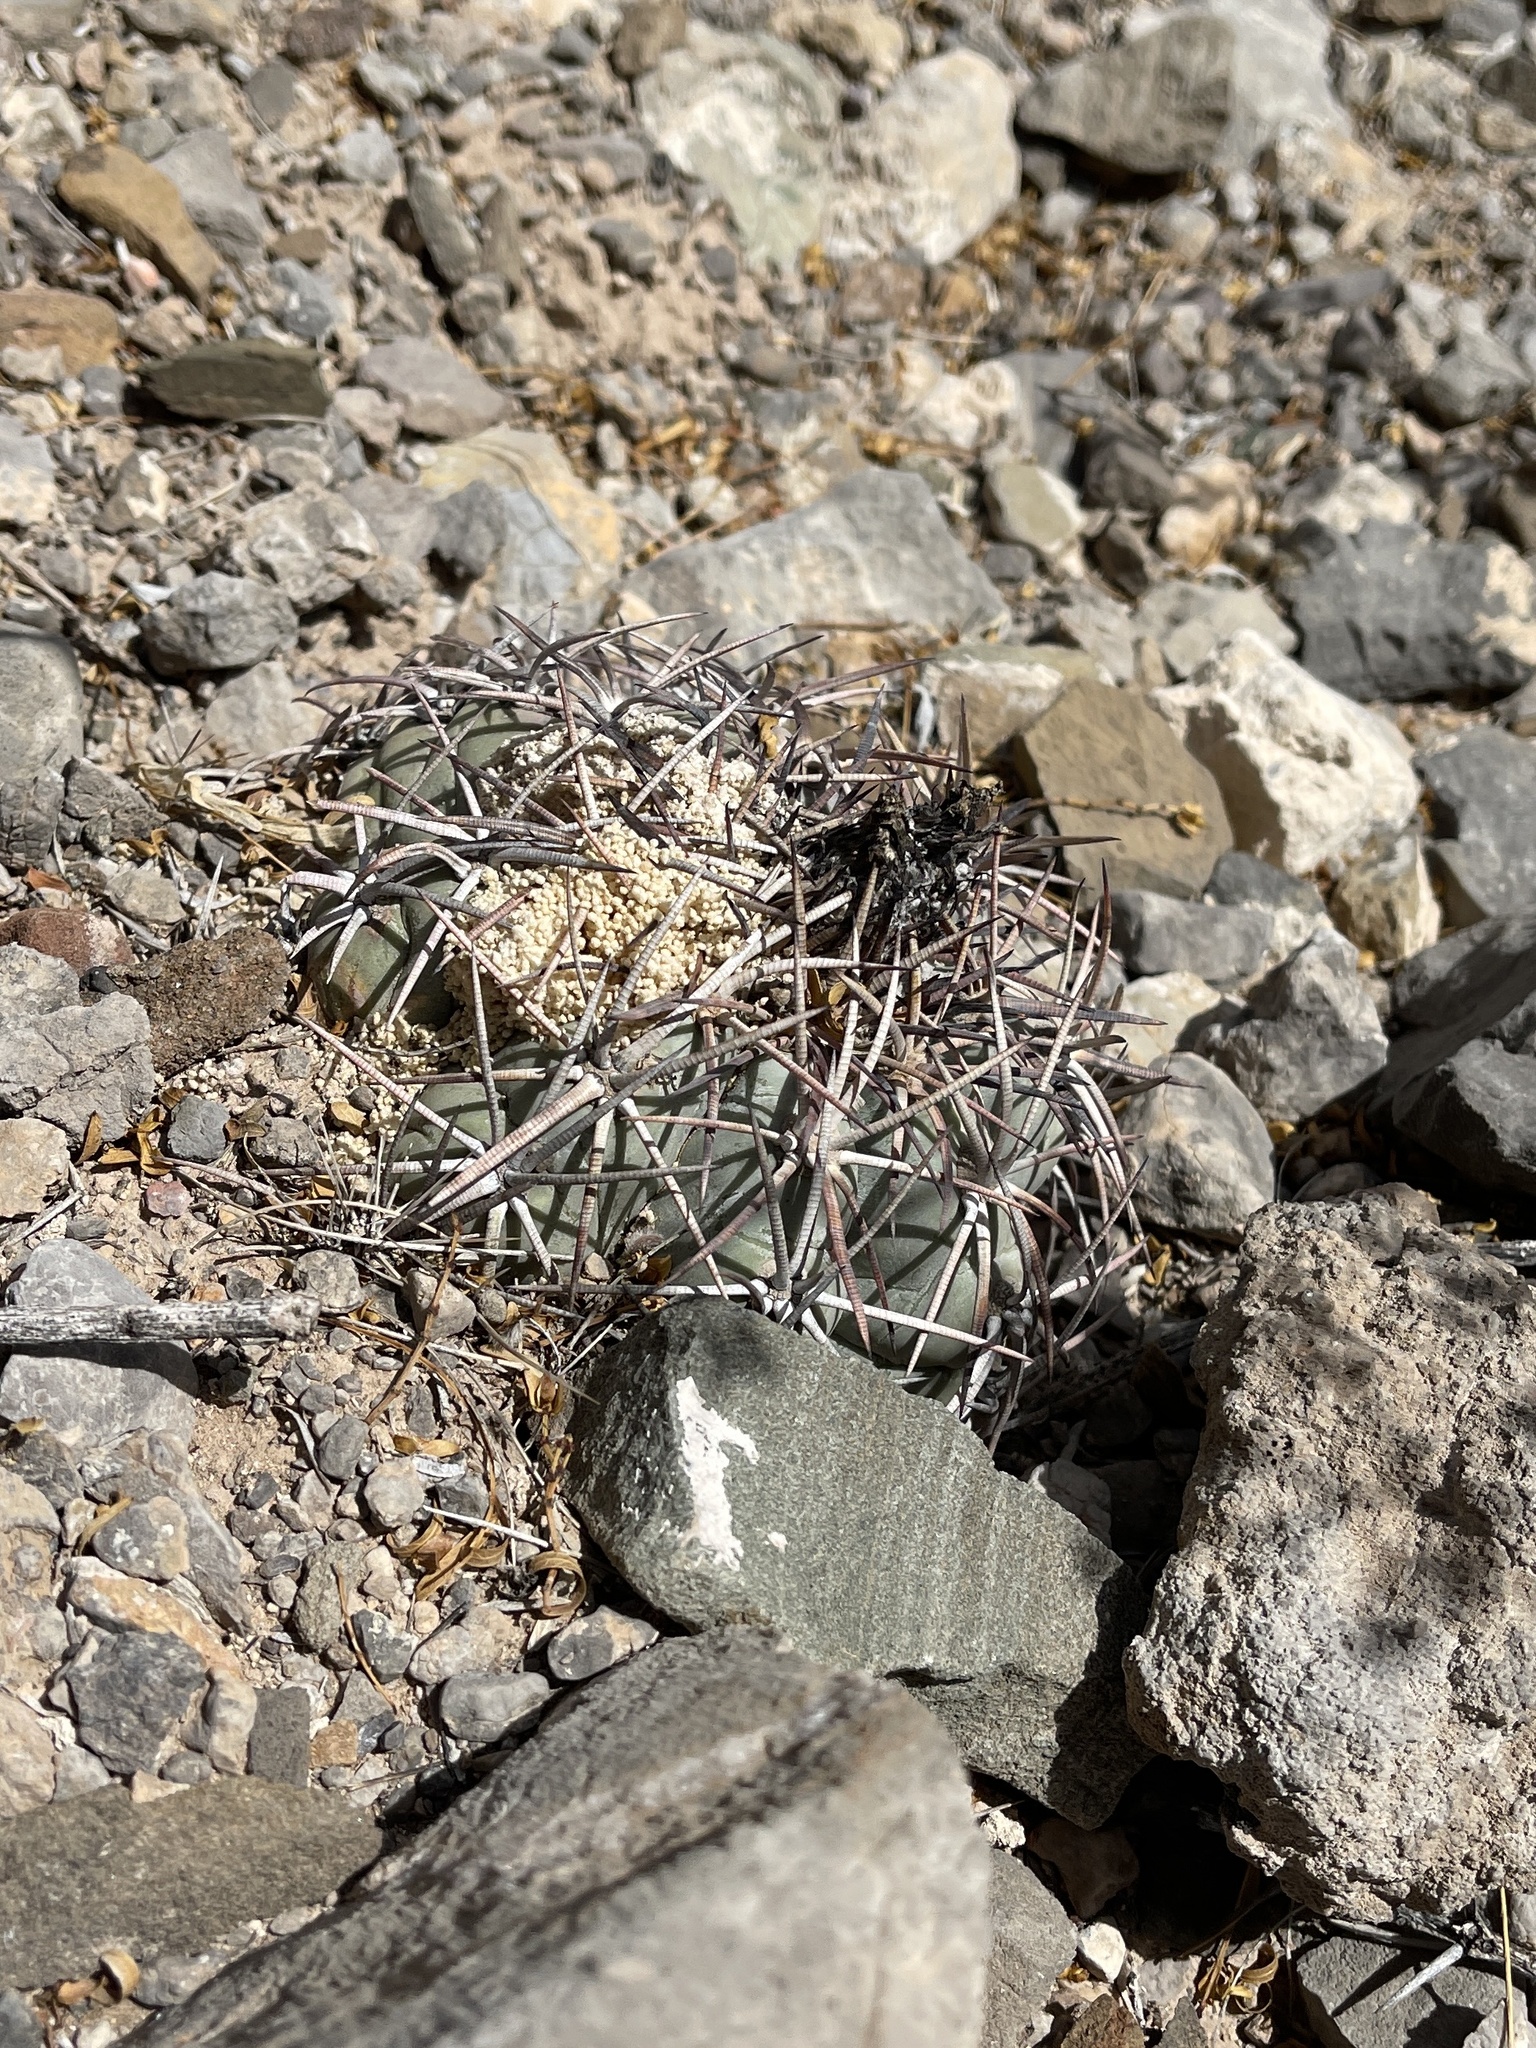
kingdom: Plantae
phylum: Tracheophyta
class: Magnoliopsida
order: Caryophyllales
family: Cactaceae
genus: Echinocactus
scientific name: Echinocactus horizonthalonius
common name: Devilshead
